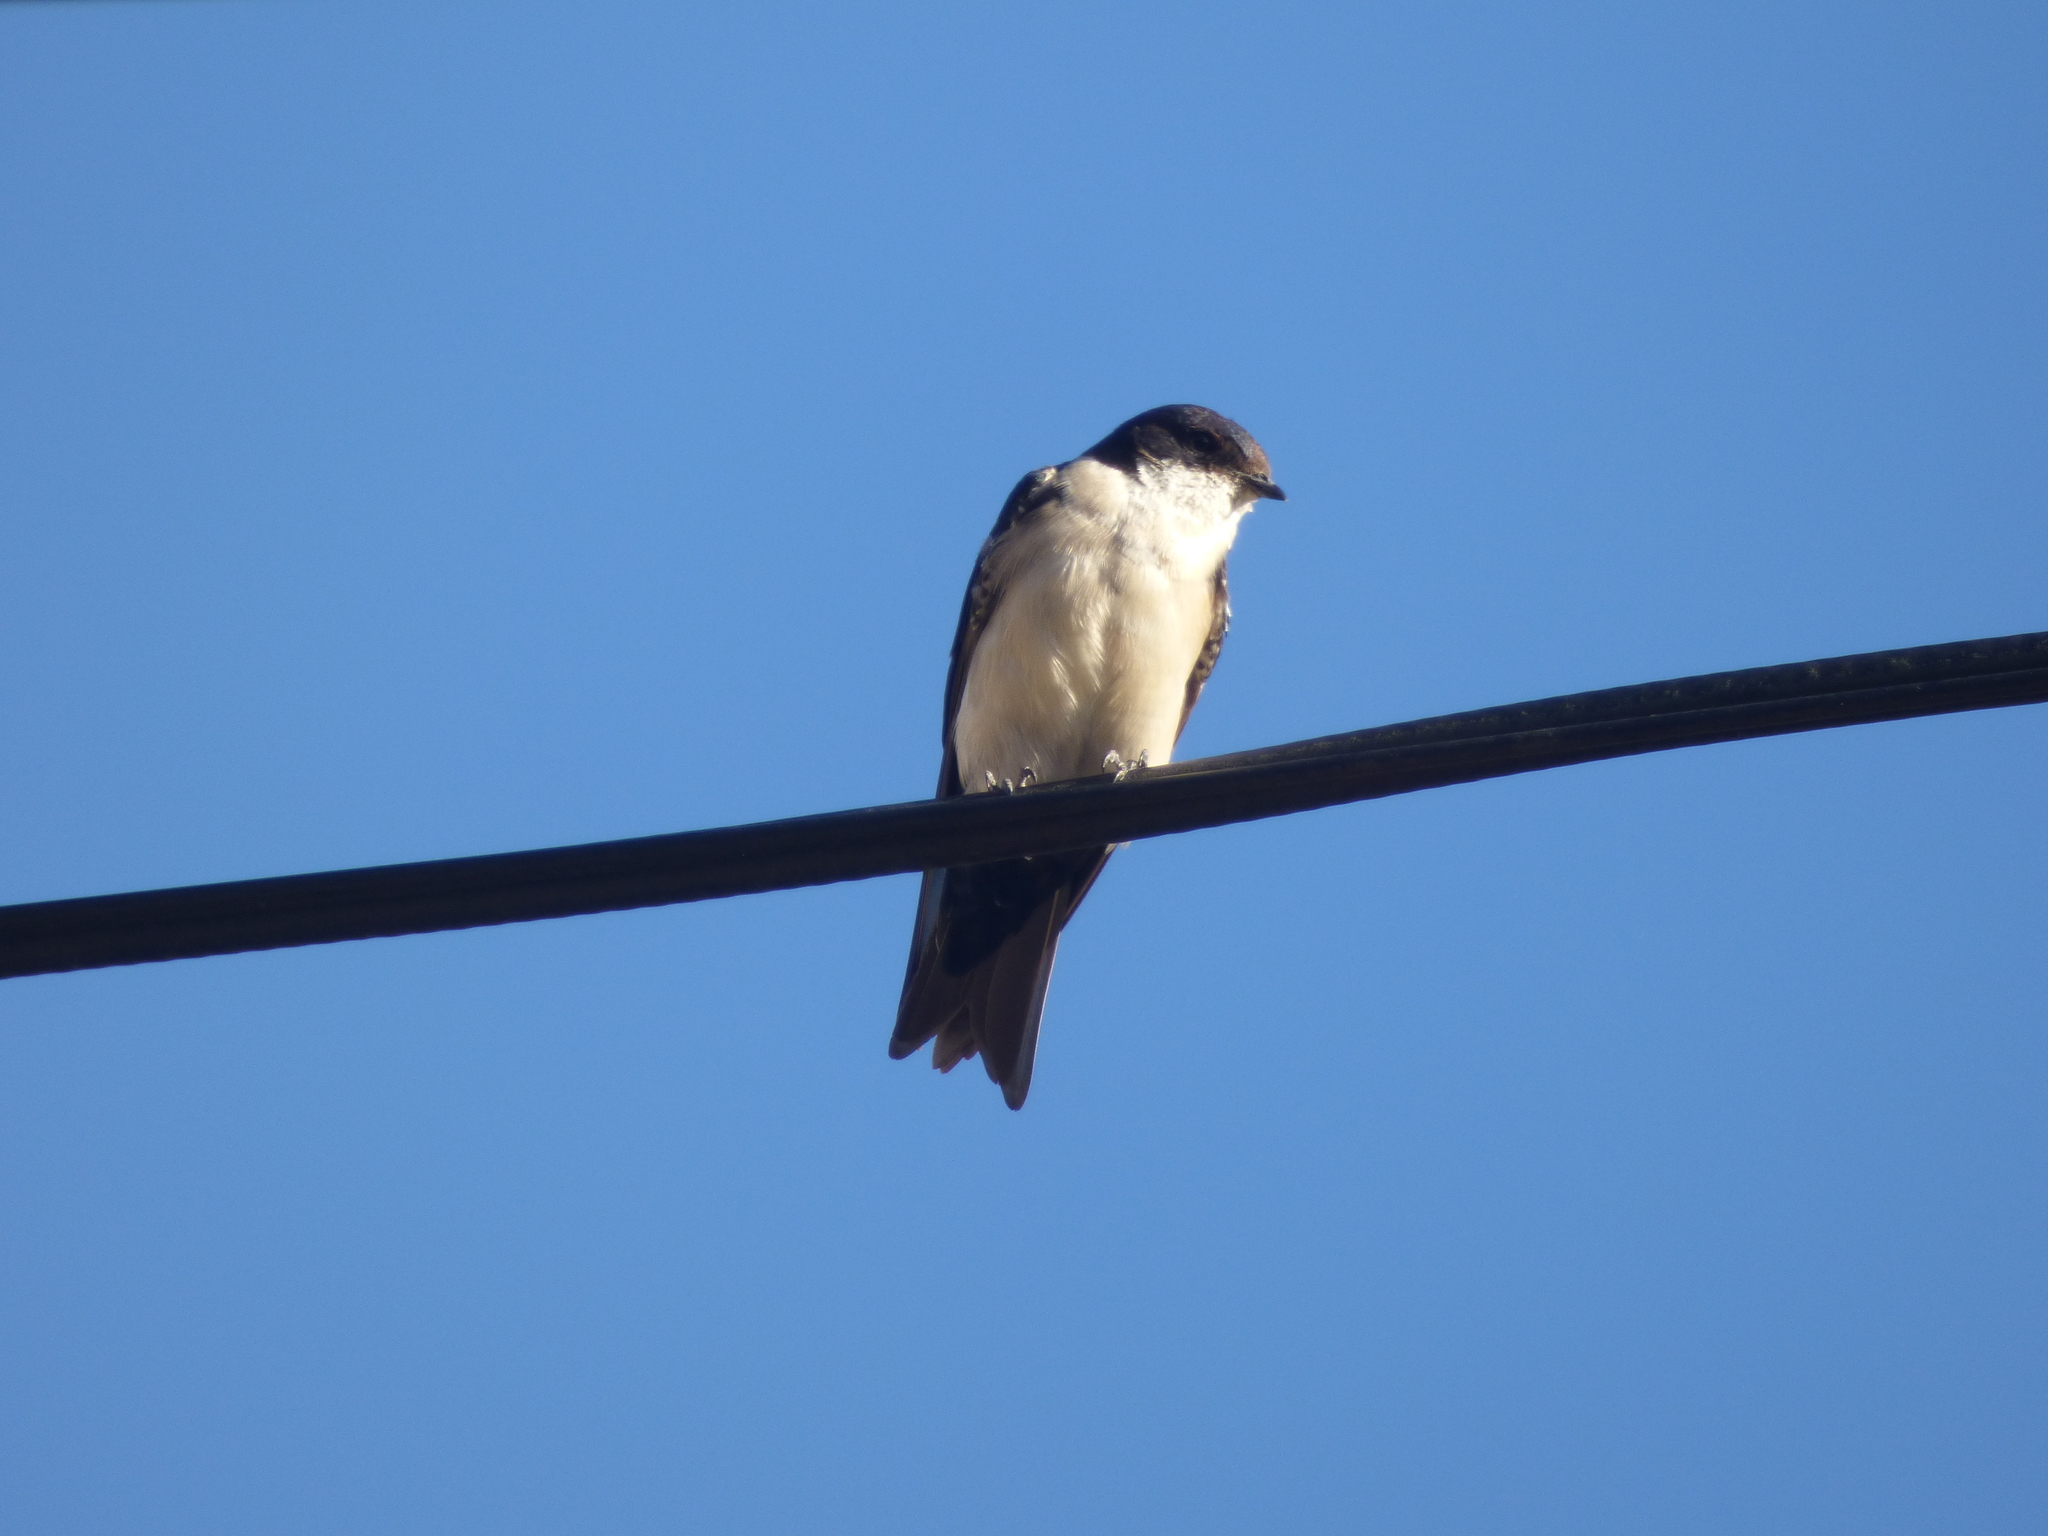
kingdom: Animalia
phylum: Chordata
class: Aves
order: Passeriformes
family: Hirundinidae
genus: Notiochelidon
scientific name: Notiochelidon cyanoleuca
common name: Blue-and-white swallow
